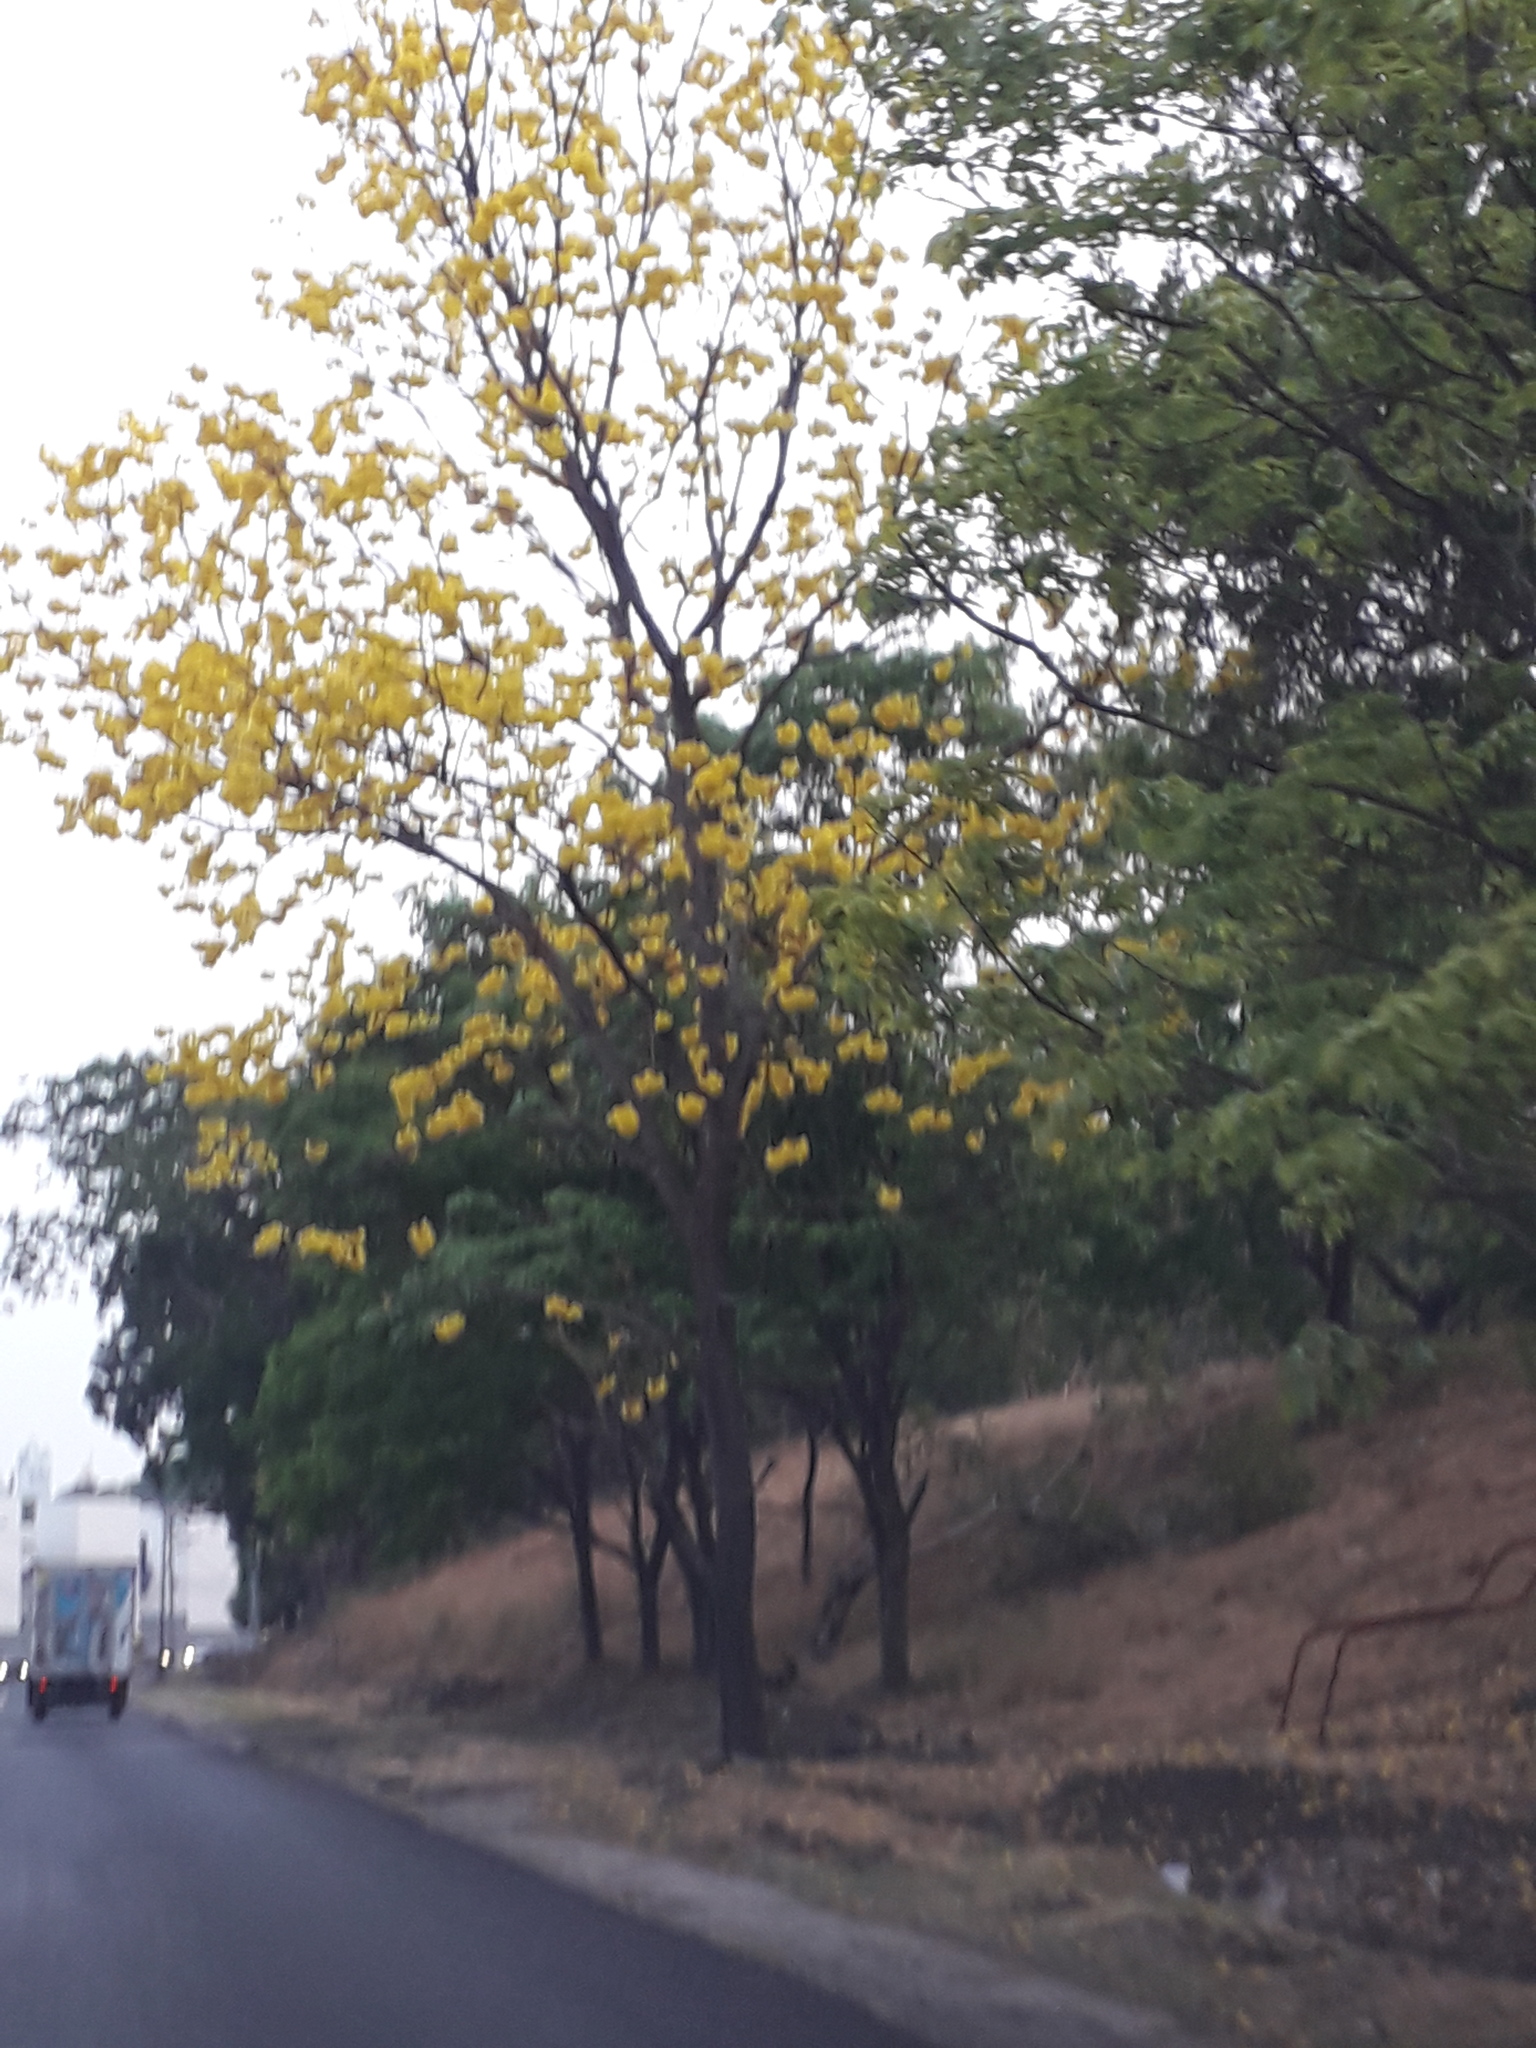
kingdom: Plantae
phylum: Tracheophyta
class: Magnoliopsida
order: Lamiales
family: Bignoniaceae
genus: Handroanthus
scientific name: Handroanthus guayacan
